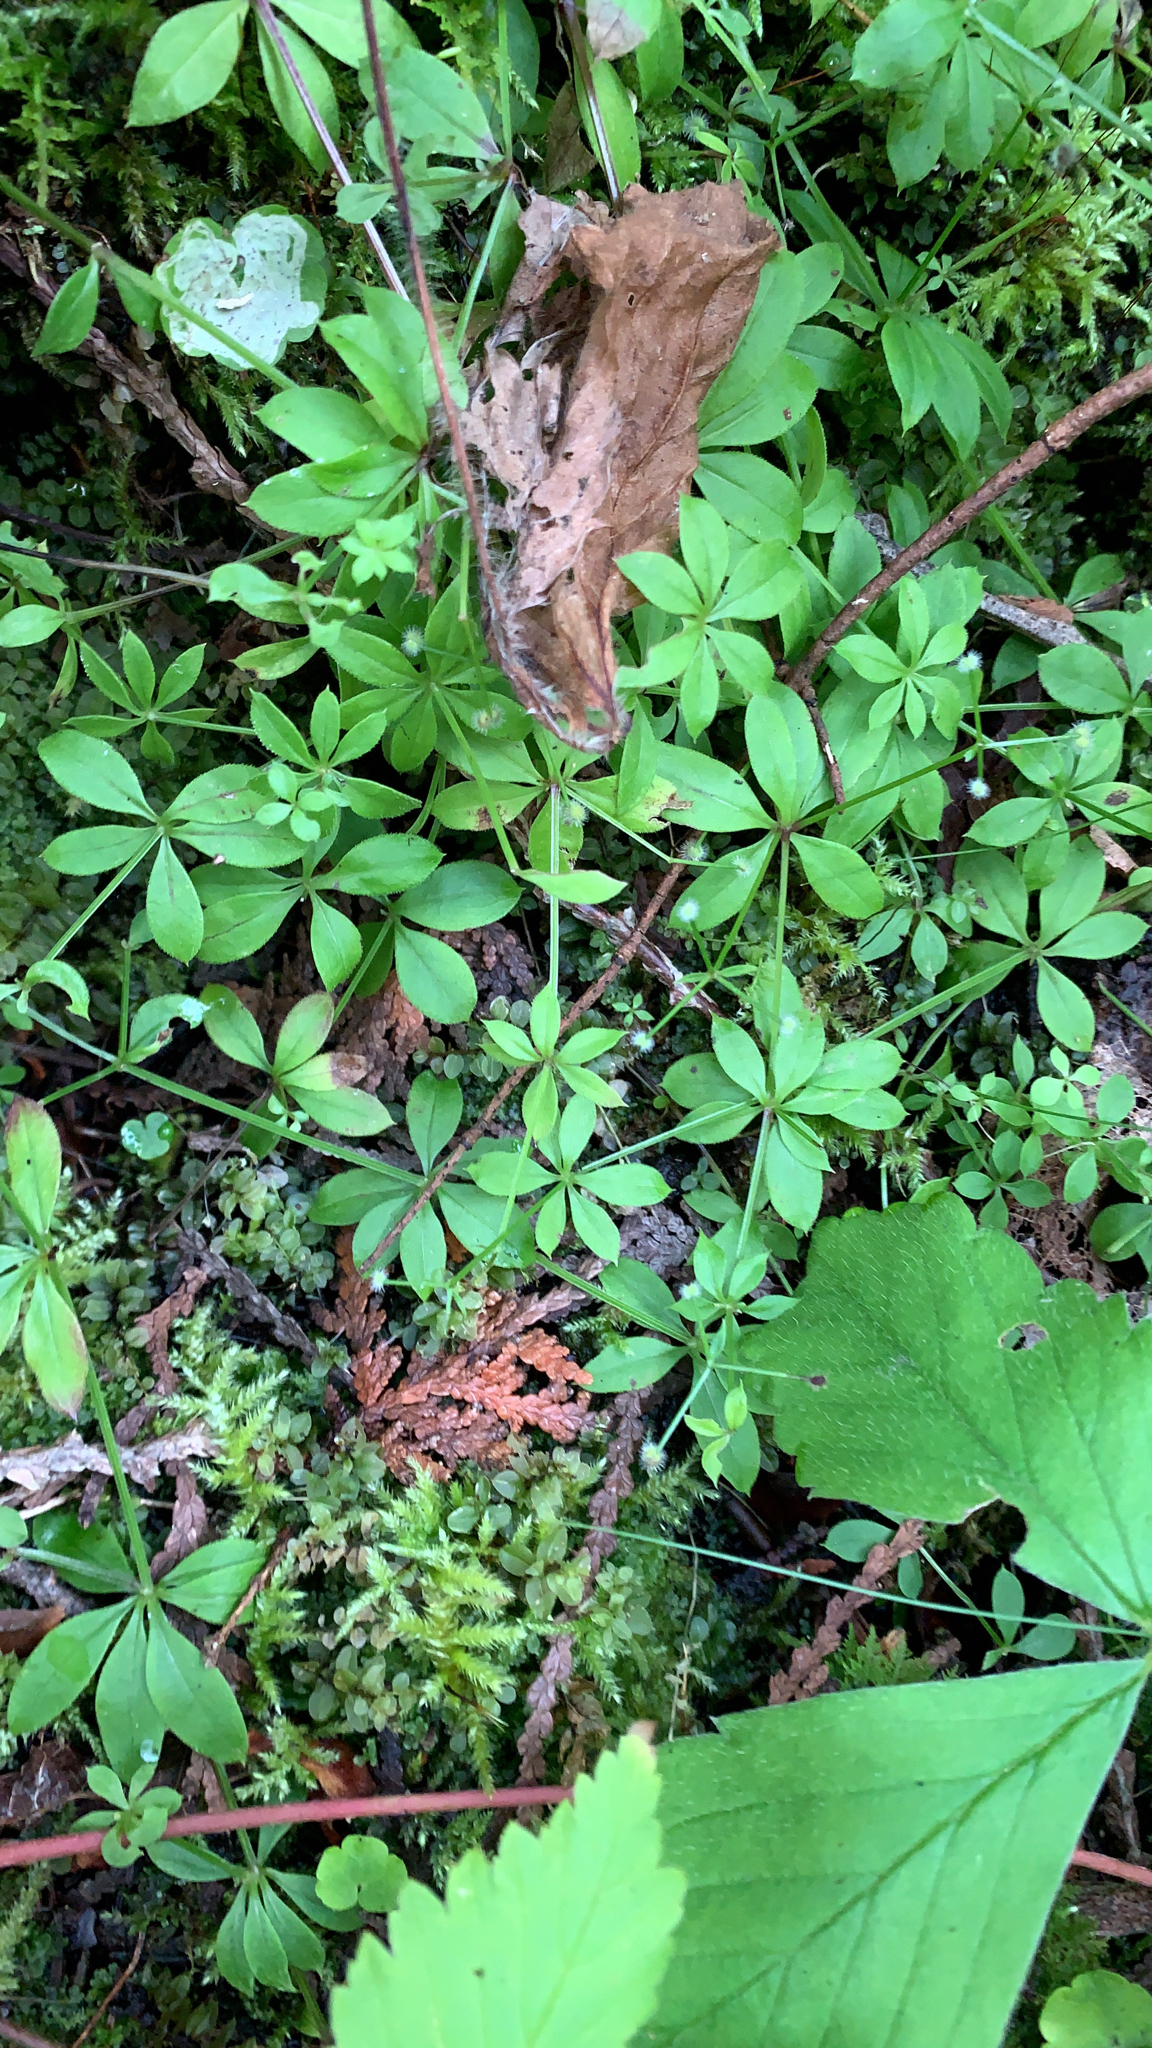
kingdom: Plantae
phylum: Tracheophyta
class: Magnoliopsida
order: Gentianales
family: Rubiaceae
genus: Galium
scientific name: Galium triflorum
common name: Fragrant bedstraw
